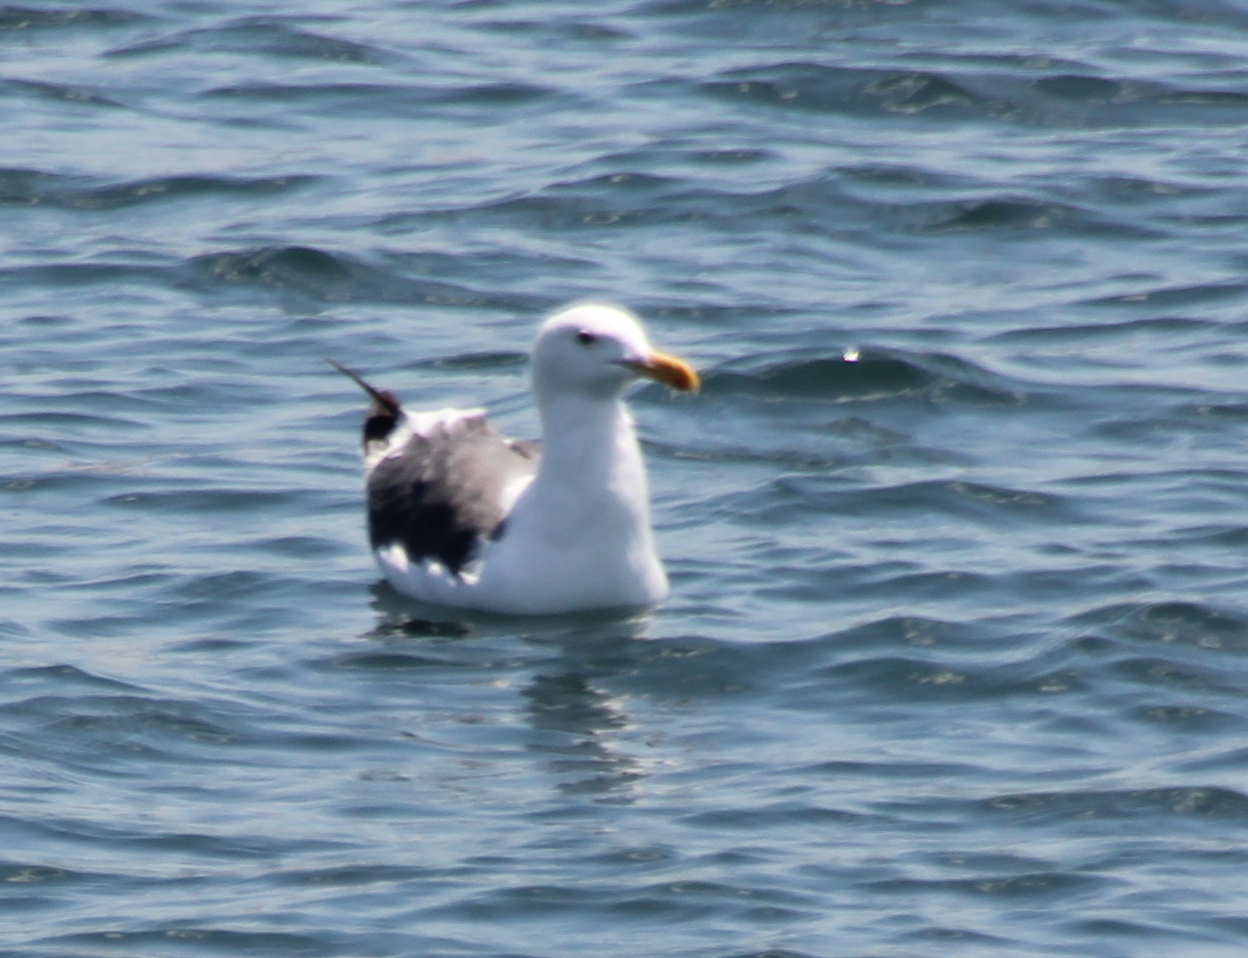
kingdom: Animalia
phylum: Chordata
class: Aves
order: Charadriiformes
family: Laridae
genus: Larus
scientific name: Larus occidentalis
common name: Western gull
